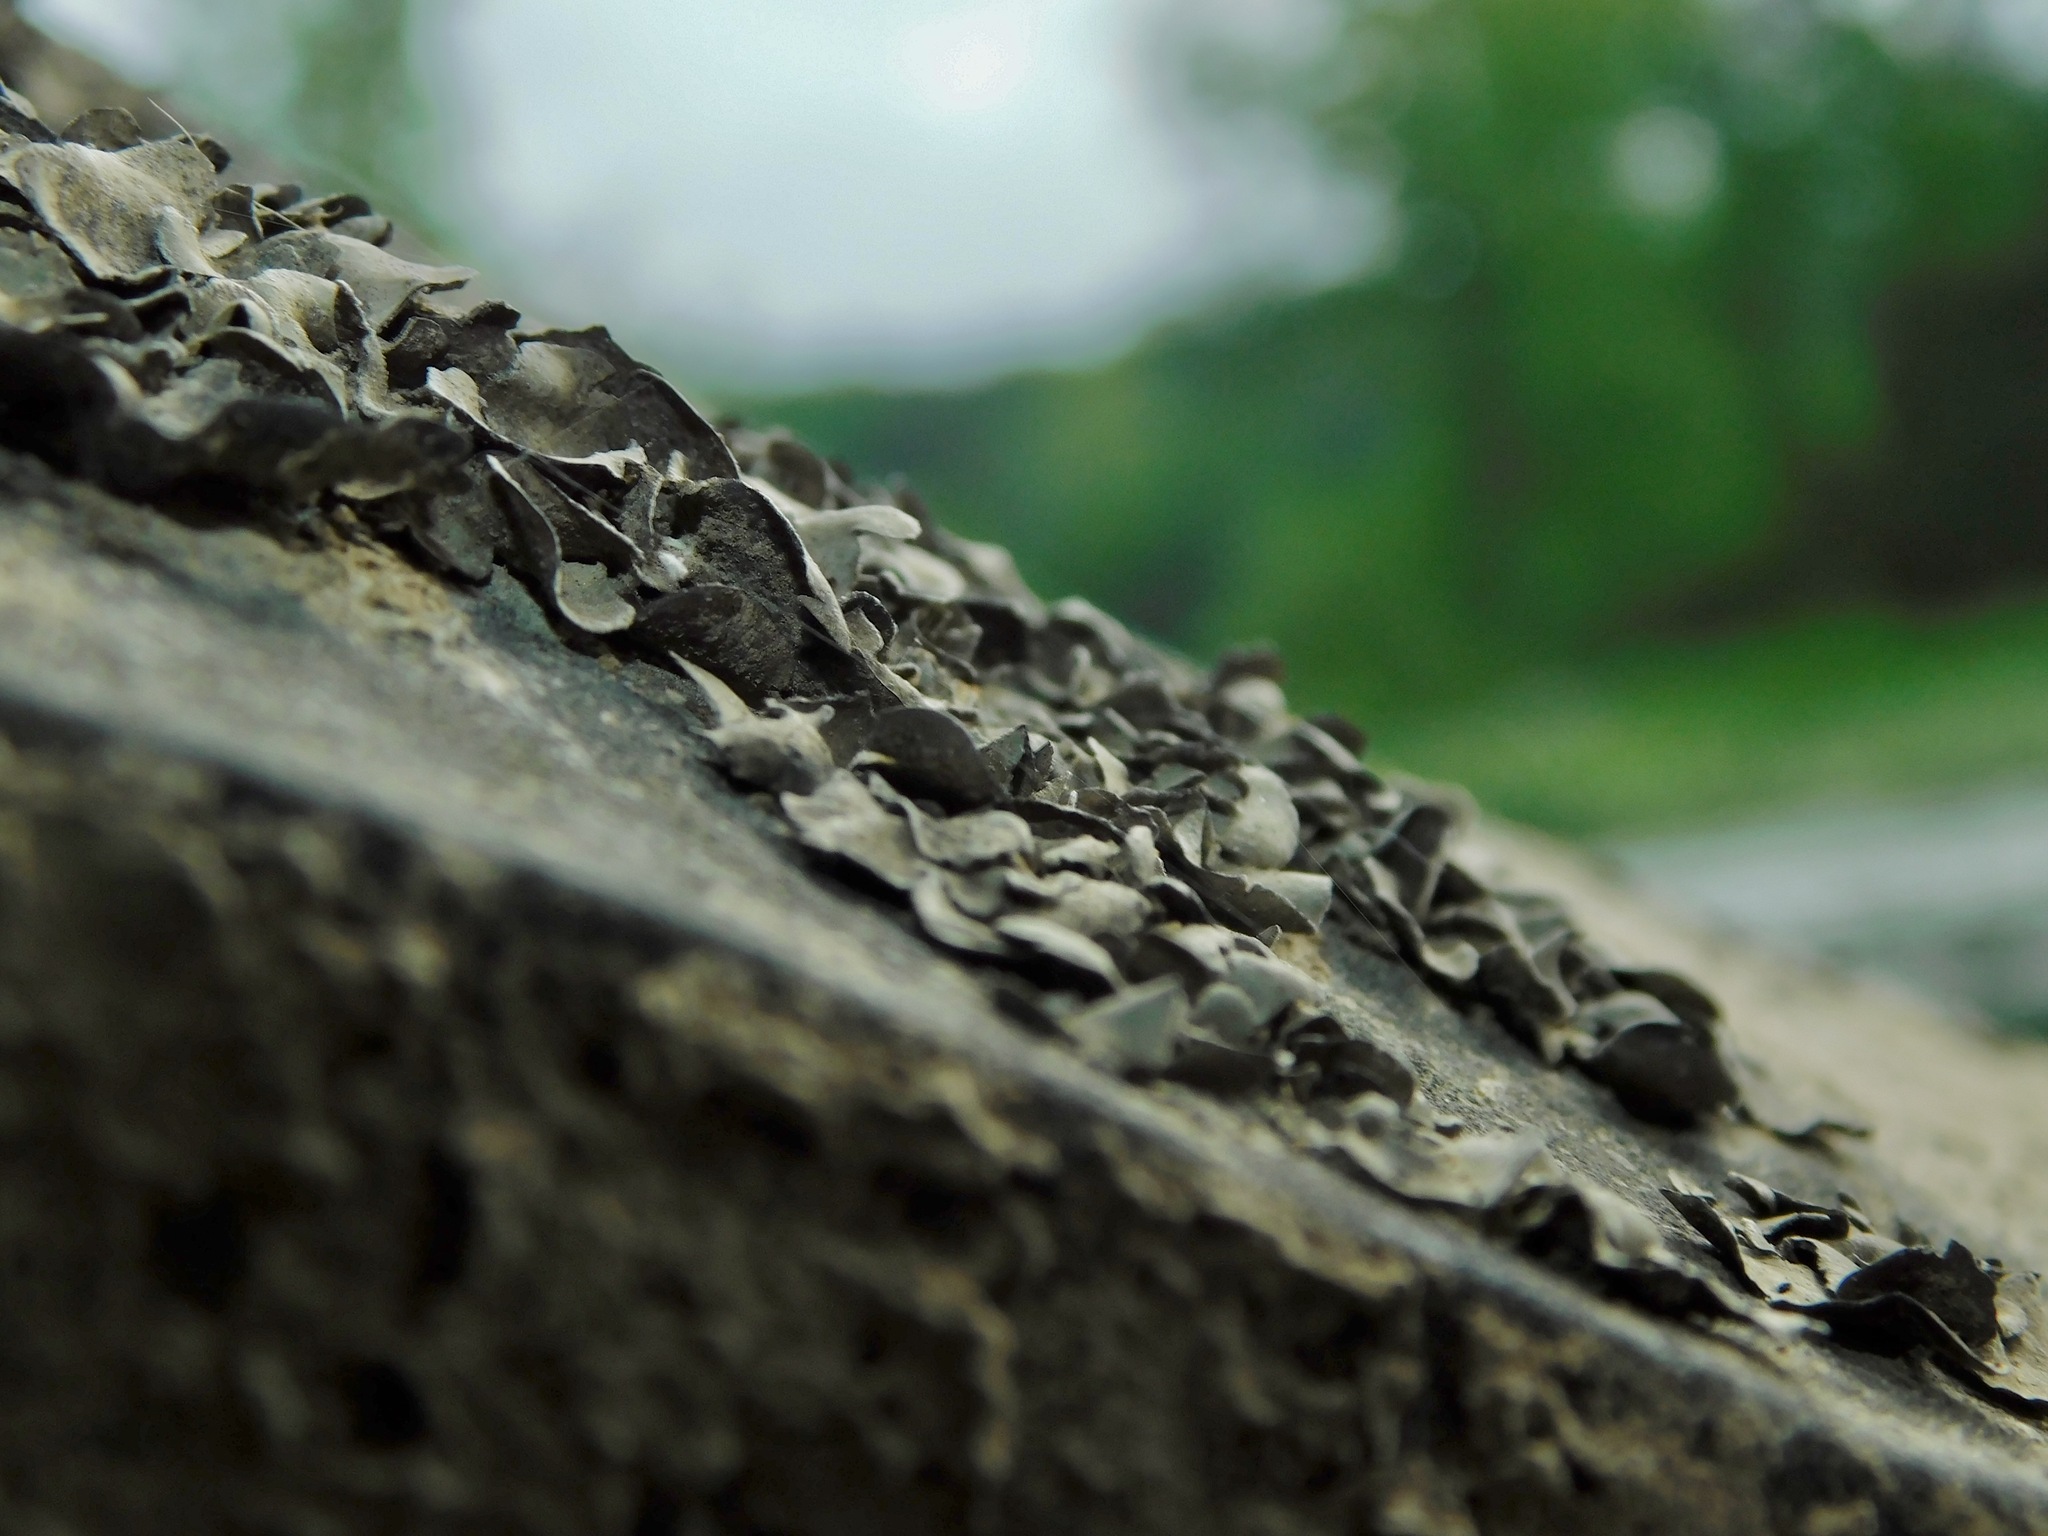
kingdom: Fungi
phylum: Ascomycota
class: Eurotiomycetes
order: Verrucariales
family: Verrucariaceae
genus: Dermatocarpon
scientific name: Dermatocarpon arenosaxi
